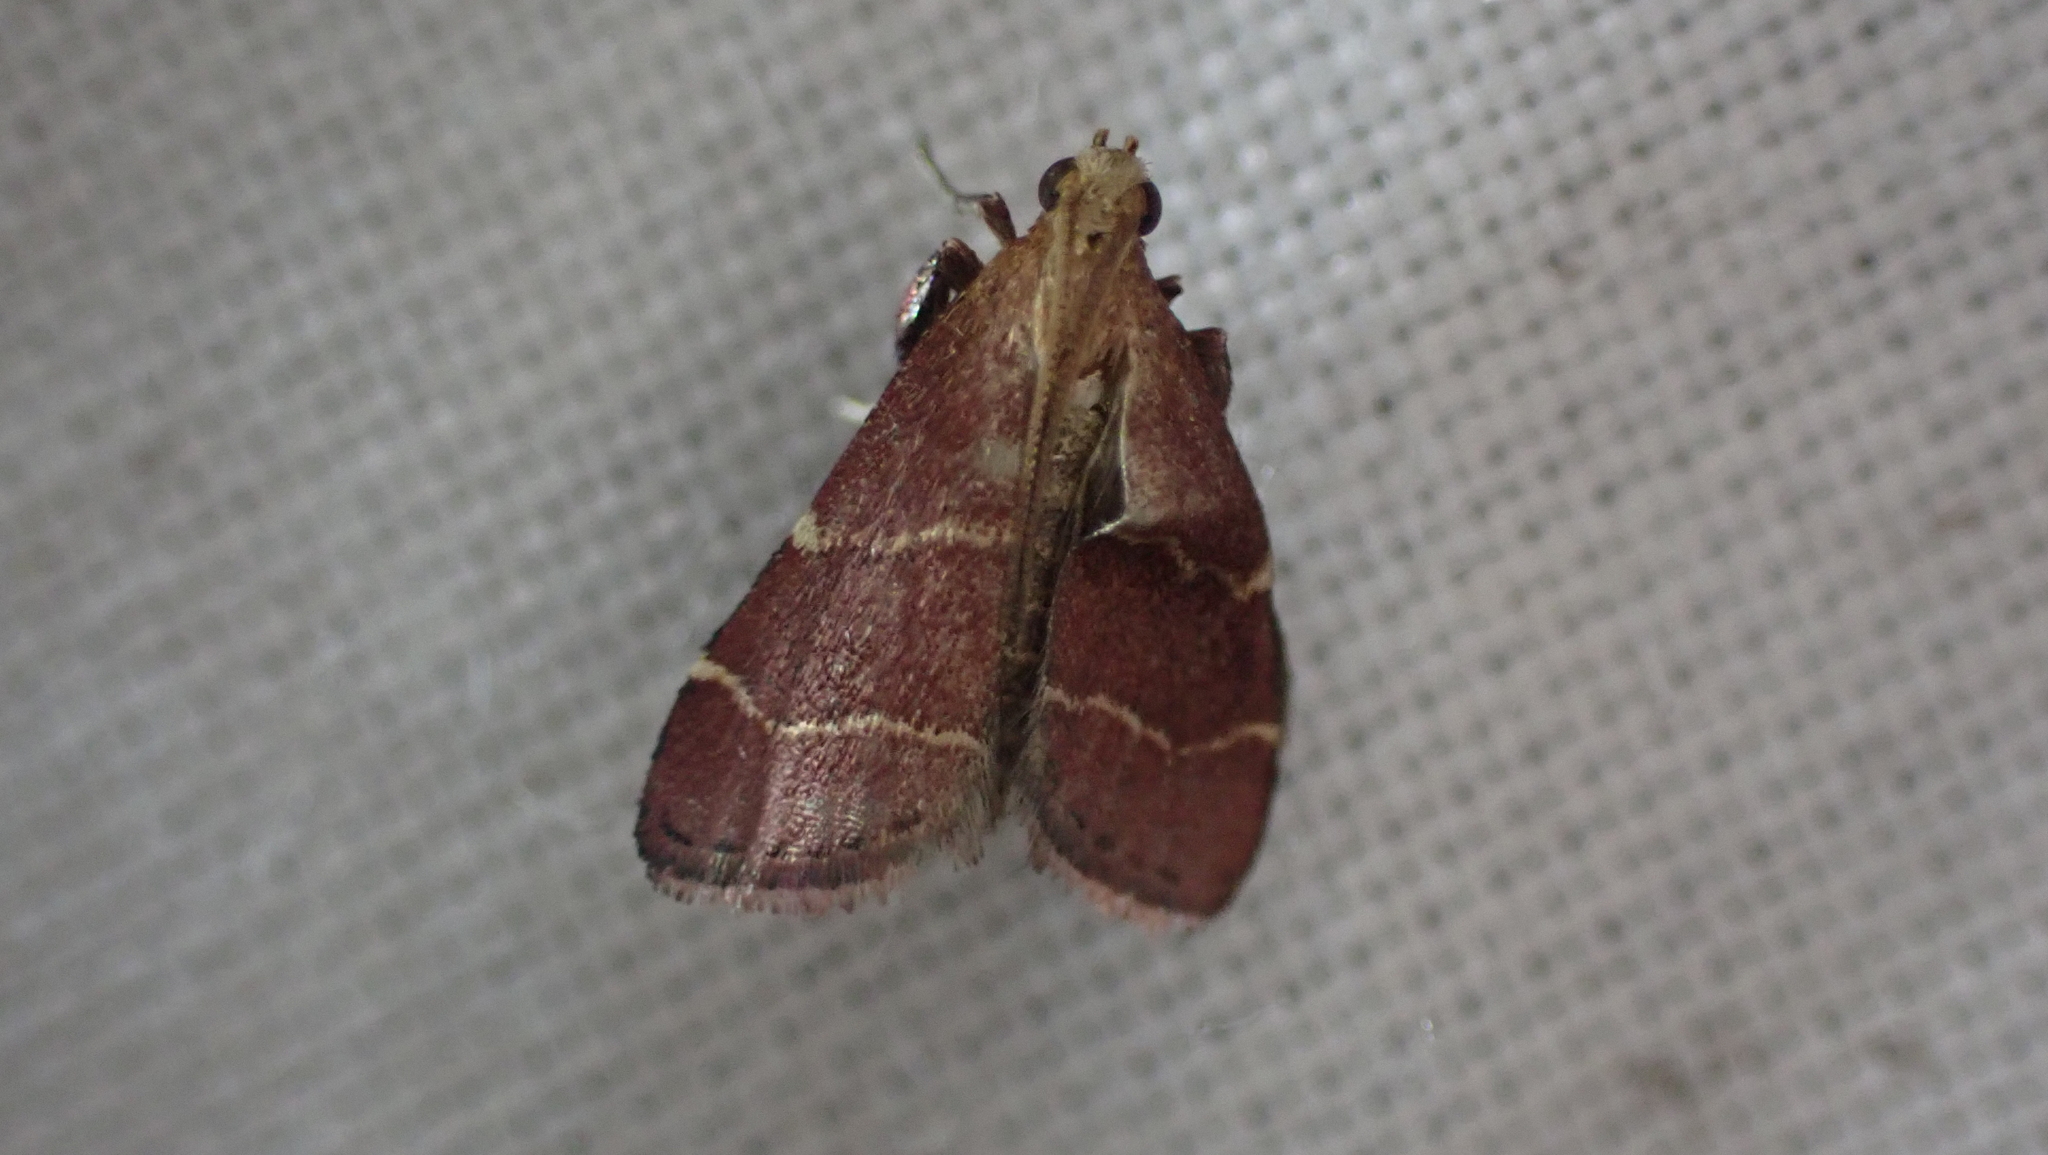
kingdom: Animalia
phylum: Arthropoda
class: Insecta
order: Lepidoptera
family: Pyralidae
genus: Arta
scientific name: Arta statalis
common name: Posturing arta moth
